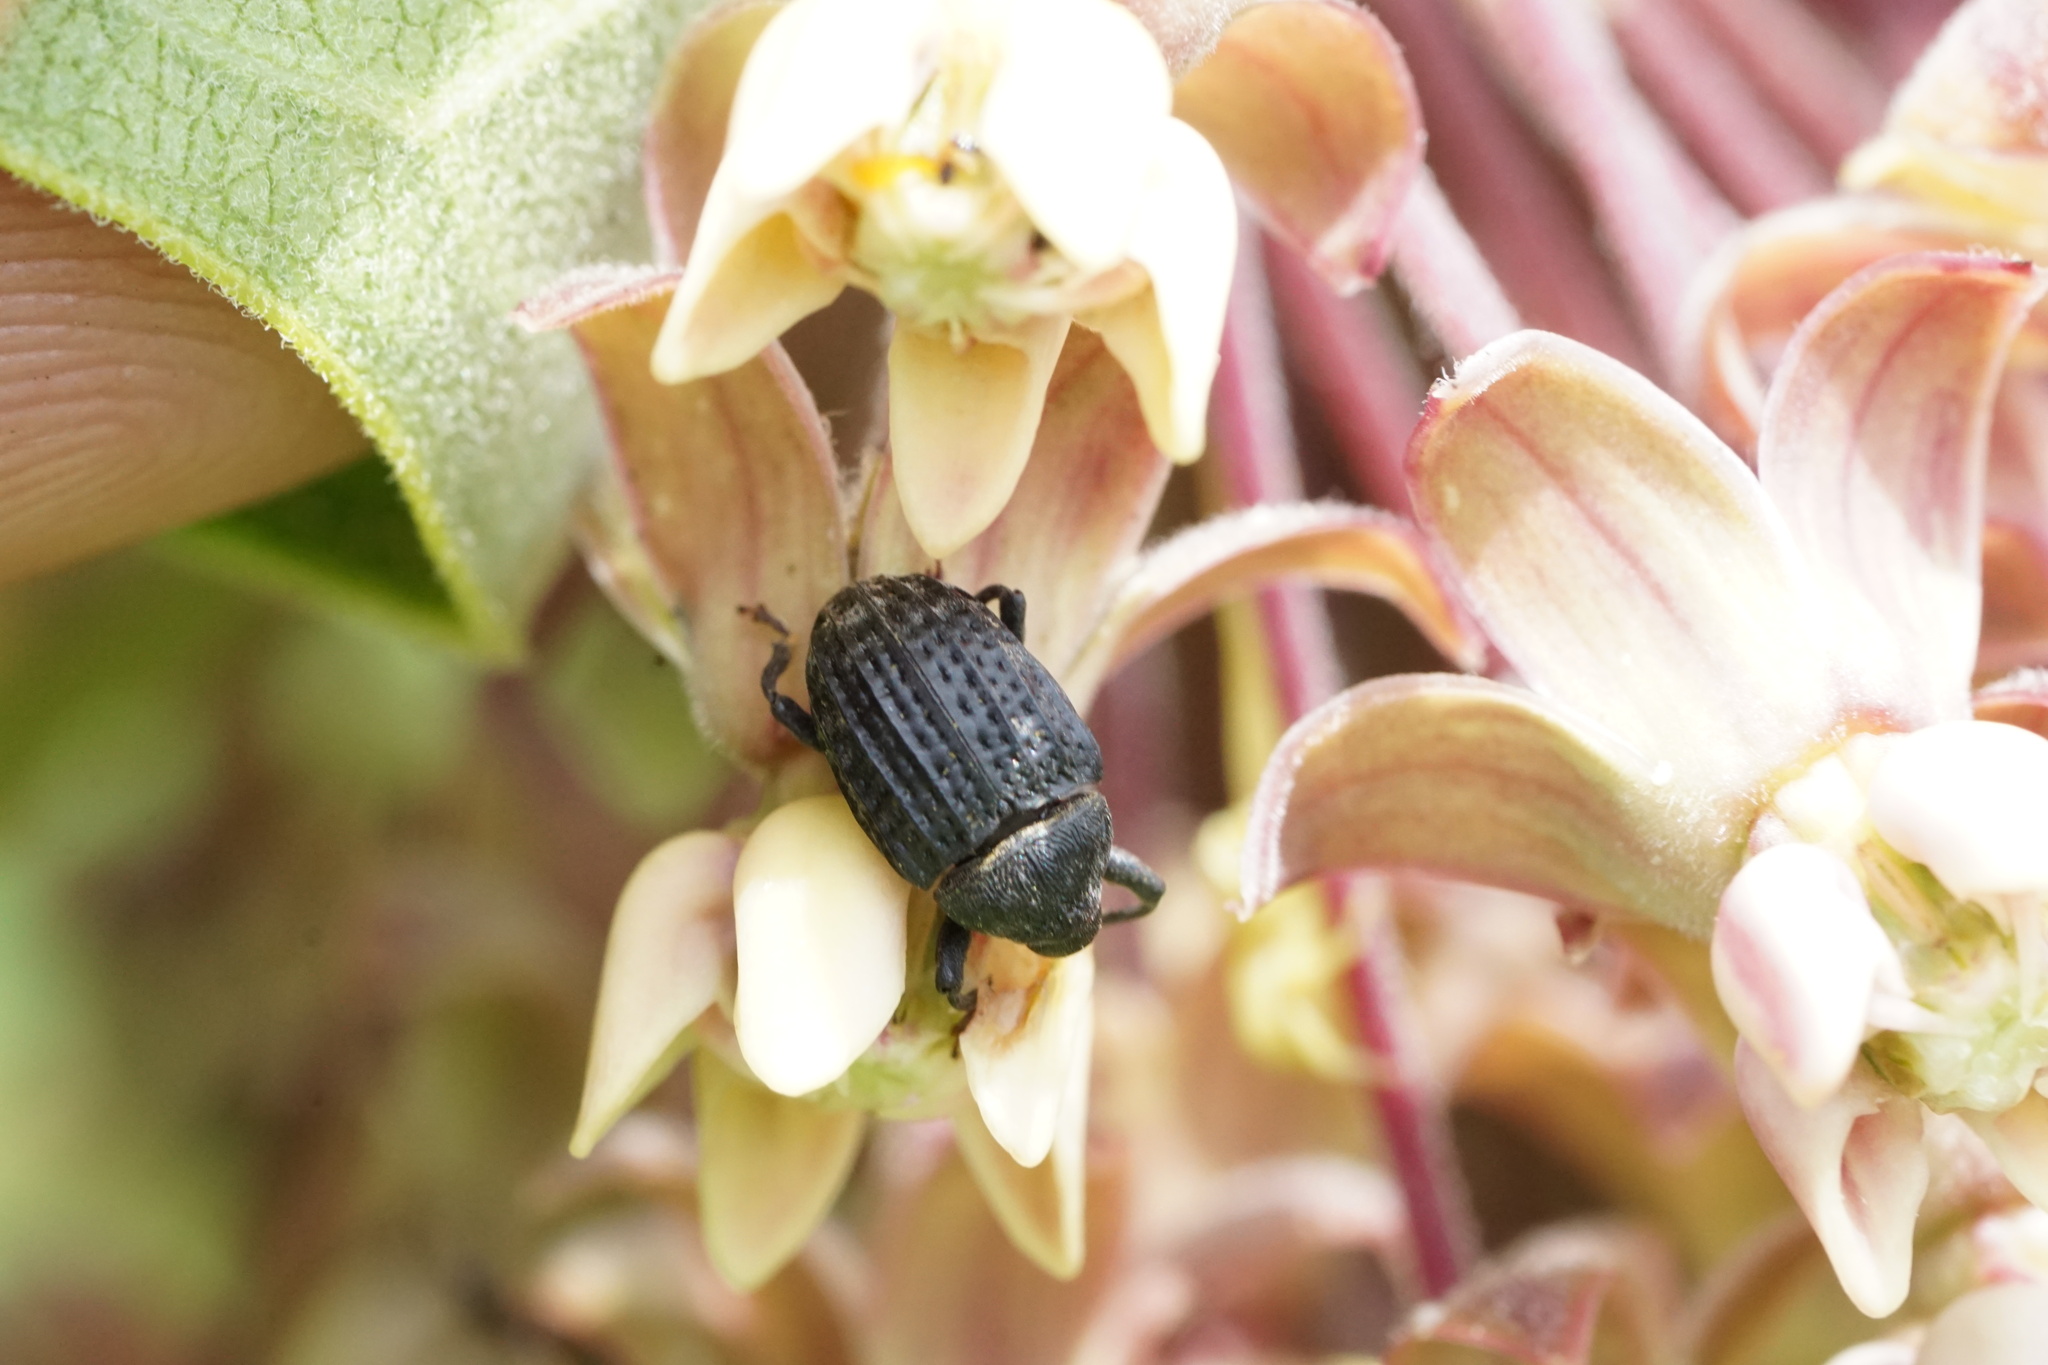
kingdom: Animalia
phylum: Arthropoda
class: Insecta
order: Coleoptera
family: Curculionidae
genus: Rhyssomatus
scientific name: Rhyssomatus lineaticollis
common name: Milkweed stem weevil
